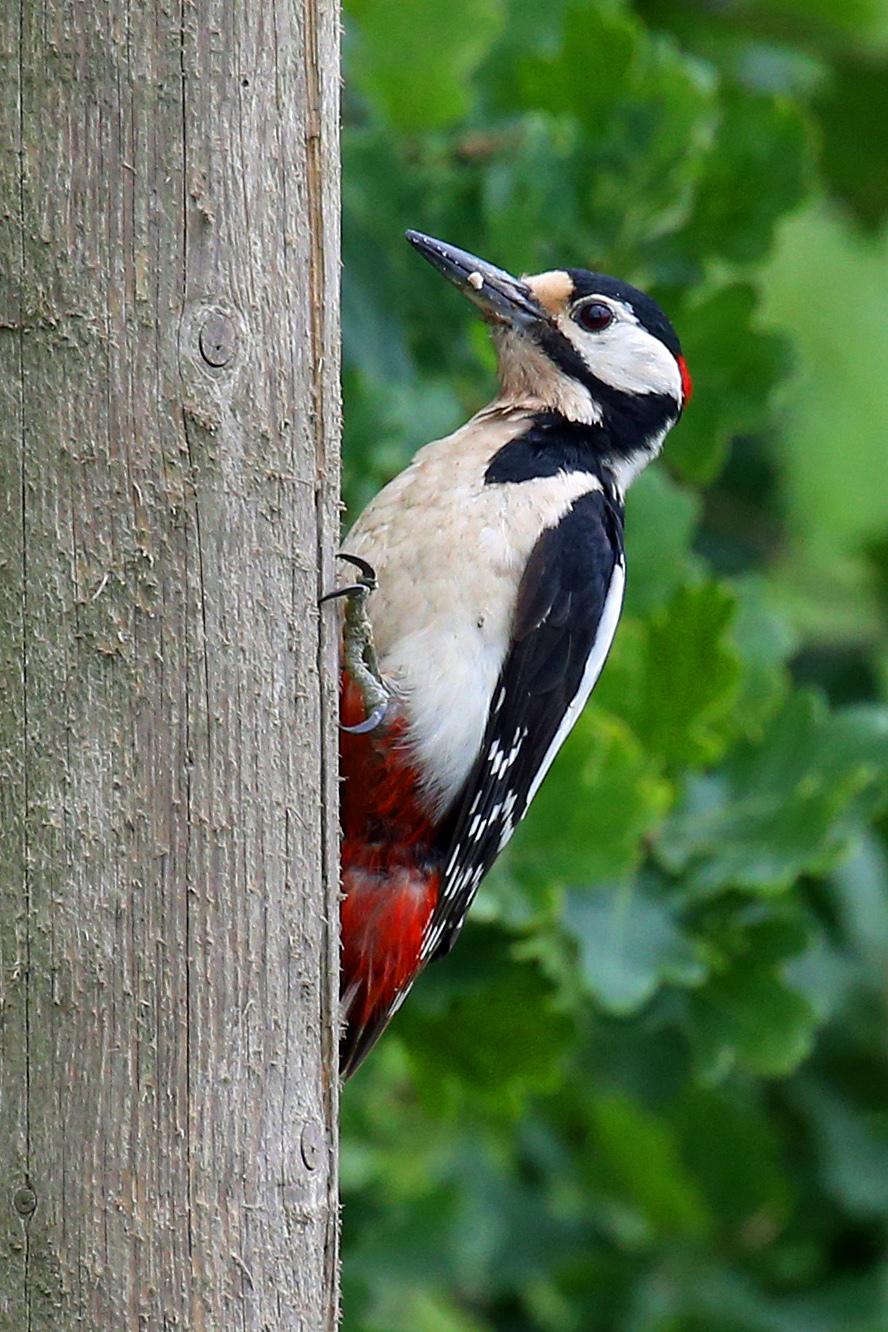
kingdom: Animalia
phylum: Chordata
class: Aves
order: Piciformes
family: Picidae
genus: Dendrocopos
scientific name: Dendrocopos major
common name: Great spotted woodpecker
